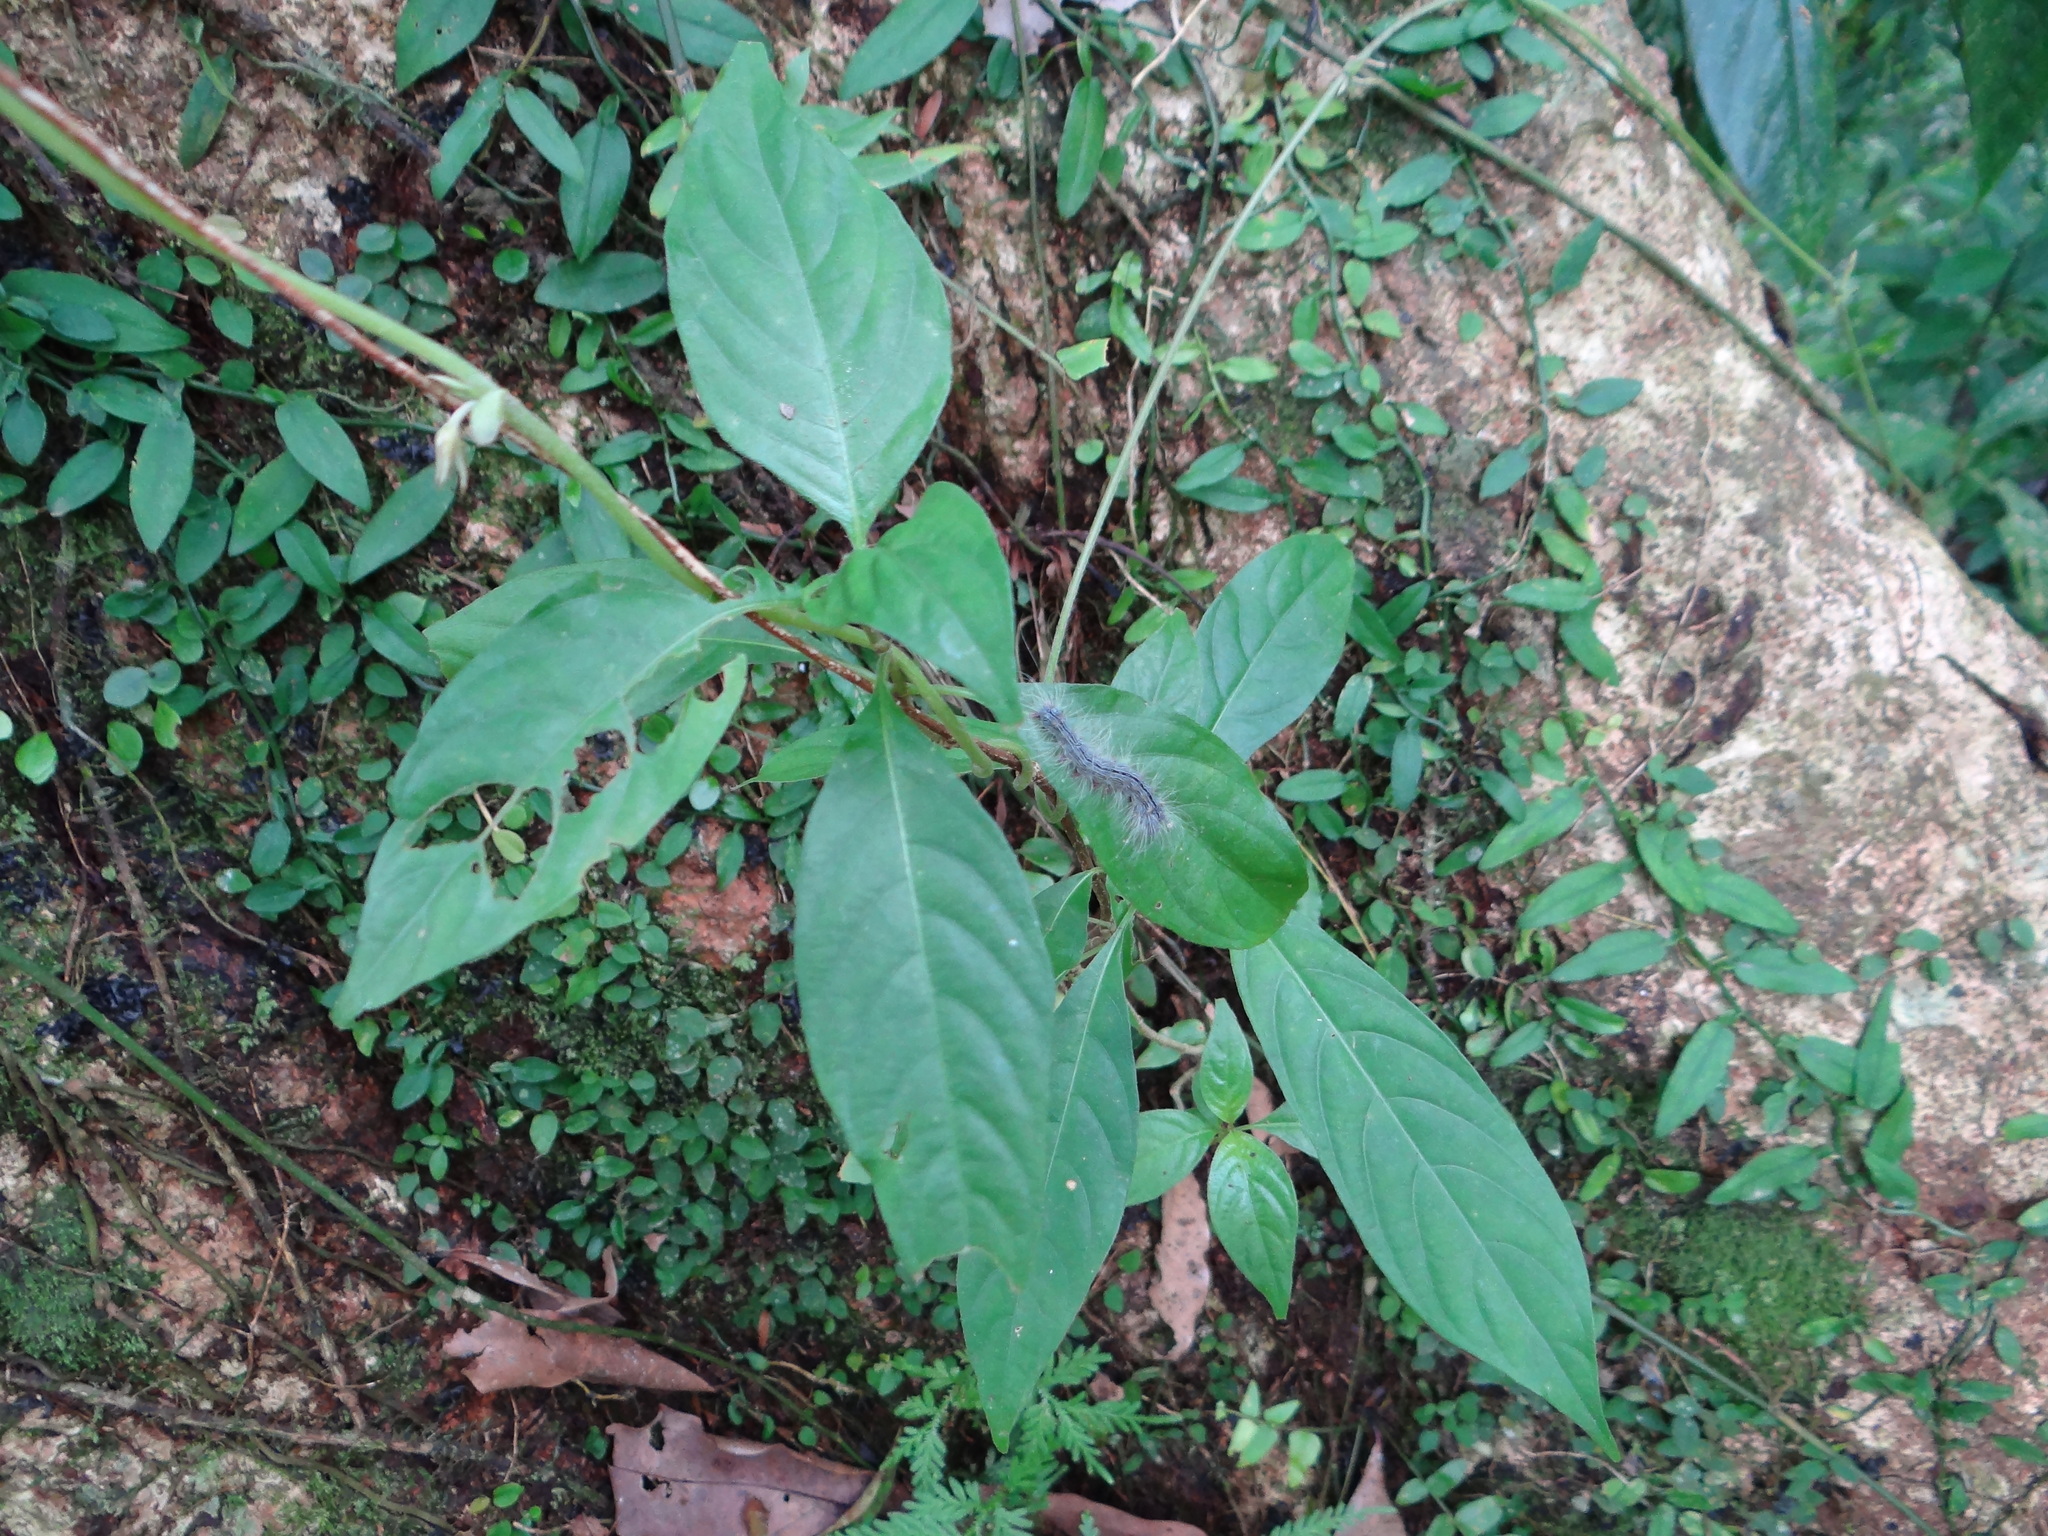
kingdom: Animalia
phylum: Arthropoda
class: Insecta
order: Lepidoptera
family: Erebidae
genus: Chrysaeglia
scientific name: Chrysaeglia magnifica
